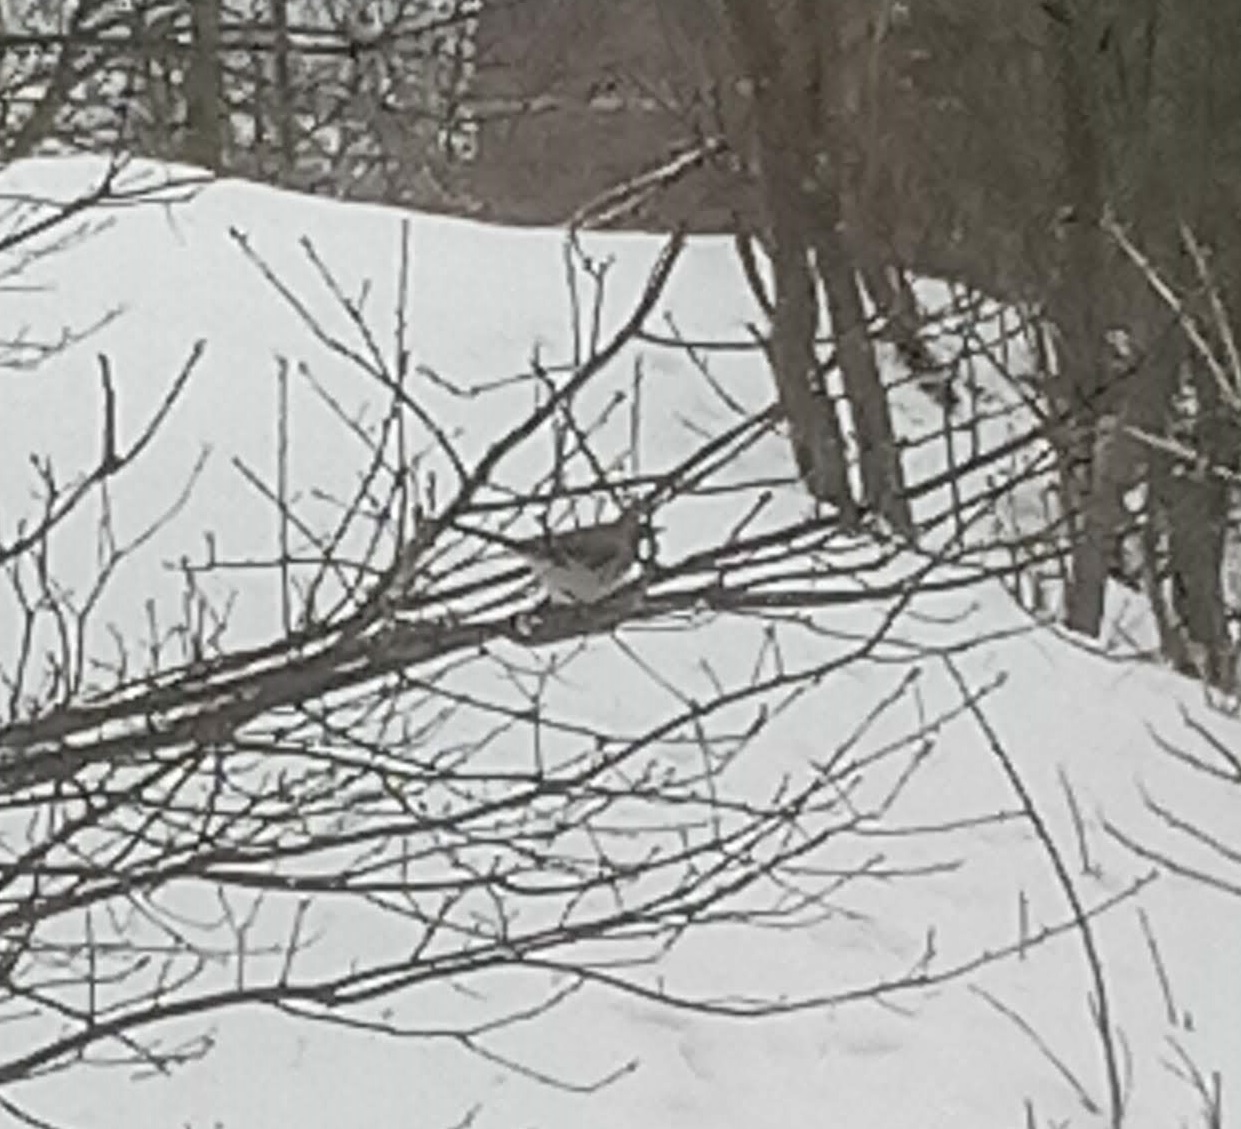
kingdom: Animalia
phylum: Chordata
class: Aves
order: Passeriformes
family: Mimidae
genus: Mimus
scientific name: Mimus polyglottos
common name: Northern mockingbird
